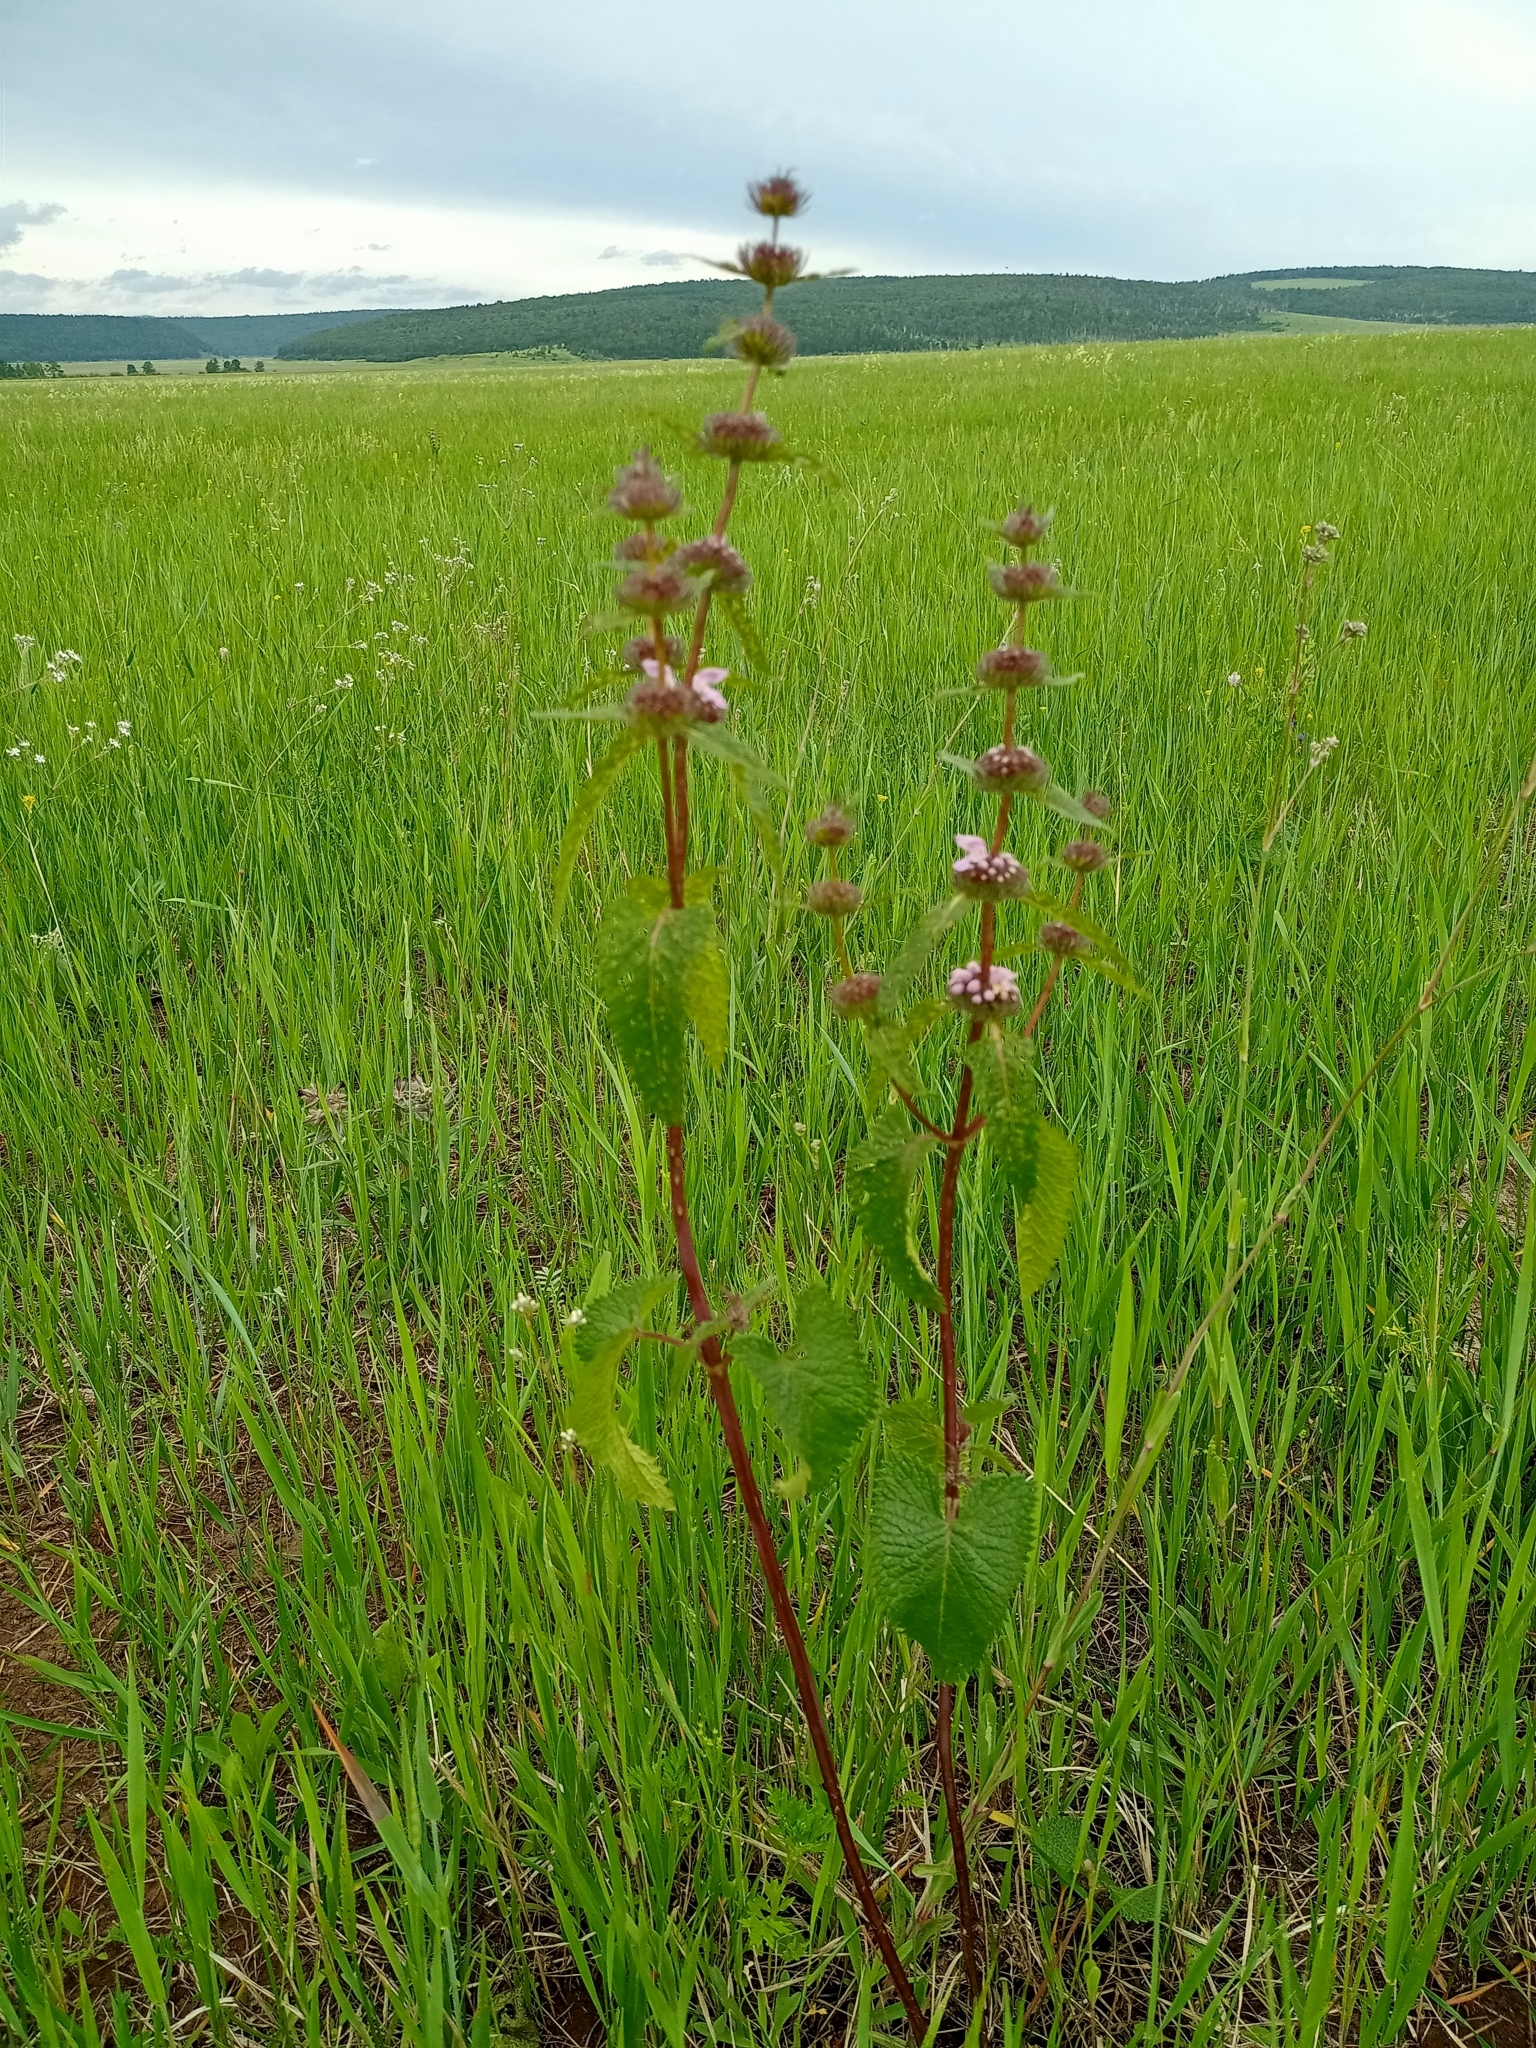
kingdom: Plantae
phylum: Tracheophyta
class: Magnoliopsida
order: Lamiales
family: Lamiaceae
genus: Phlomoides
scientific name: Phlomoides tuberosa
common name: Tuberous jerusalem sage
